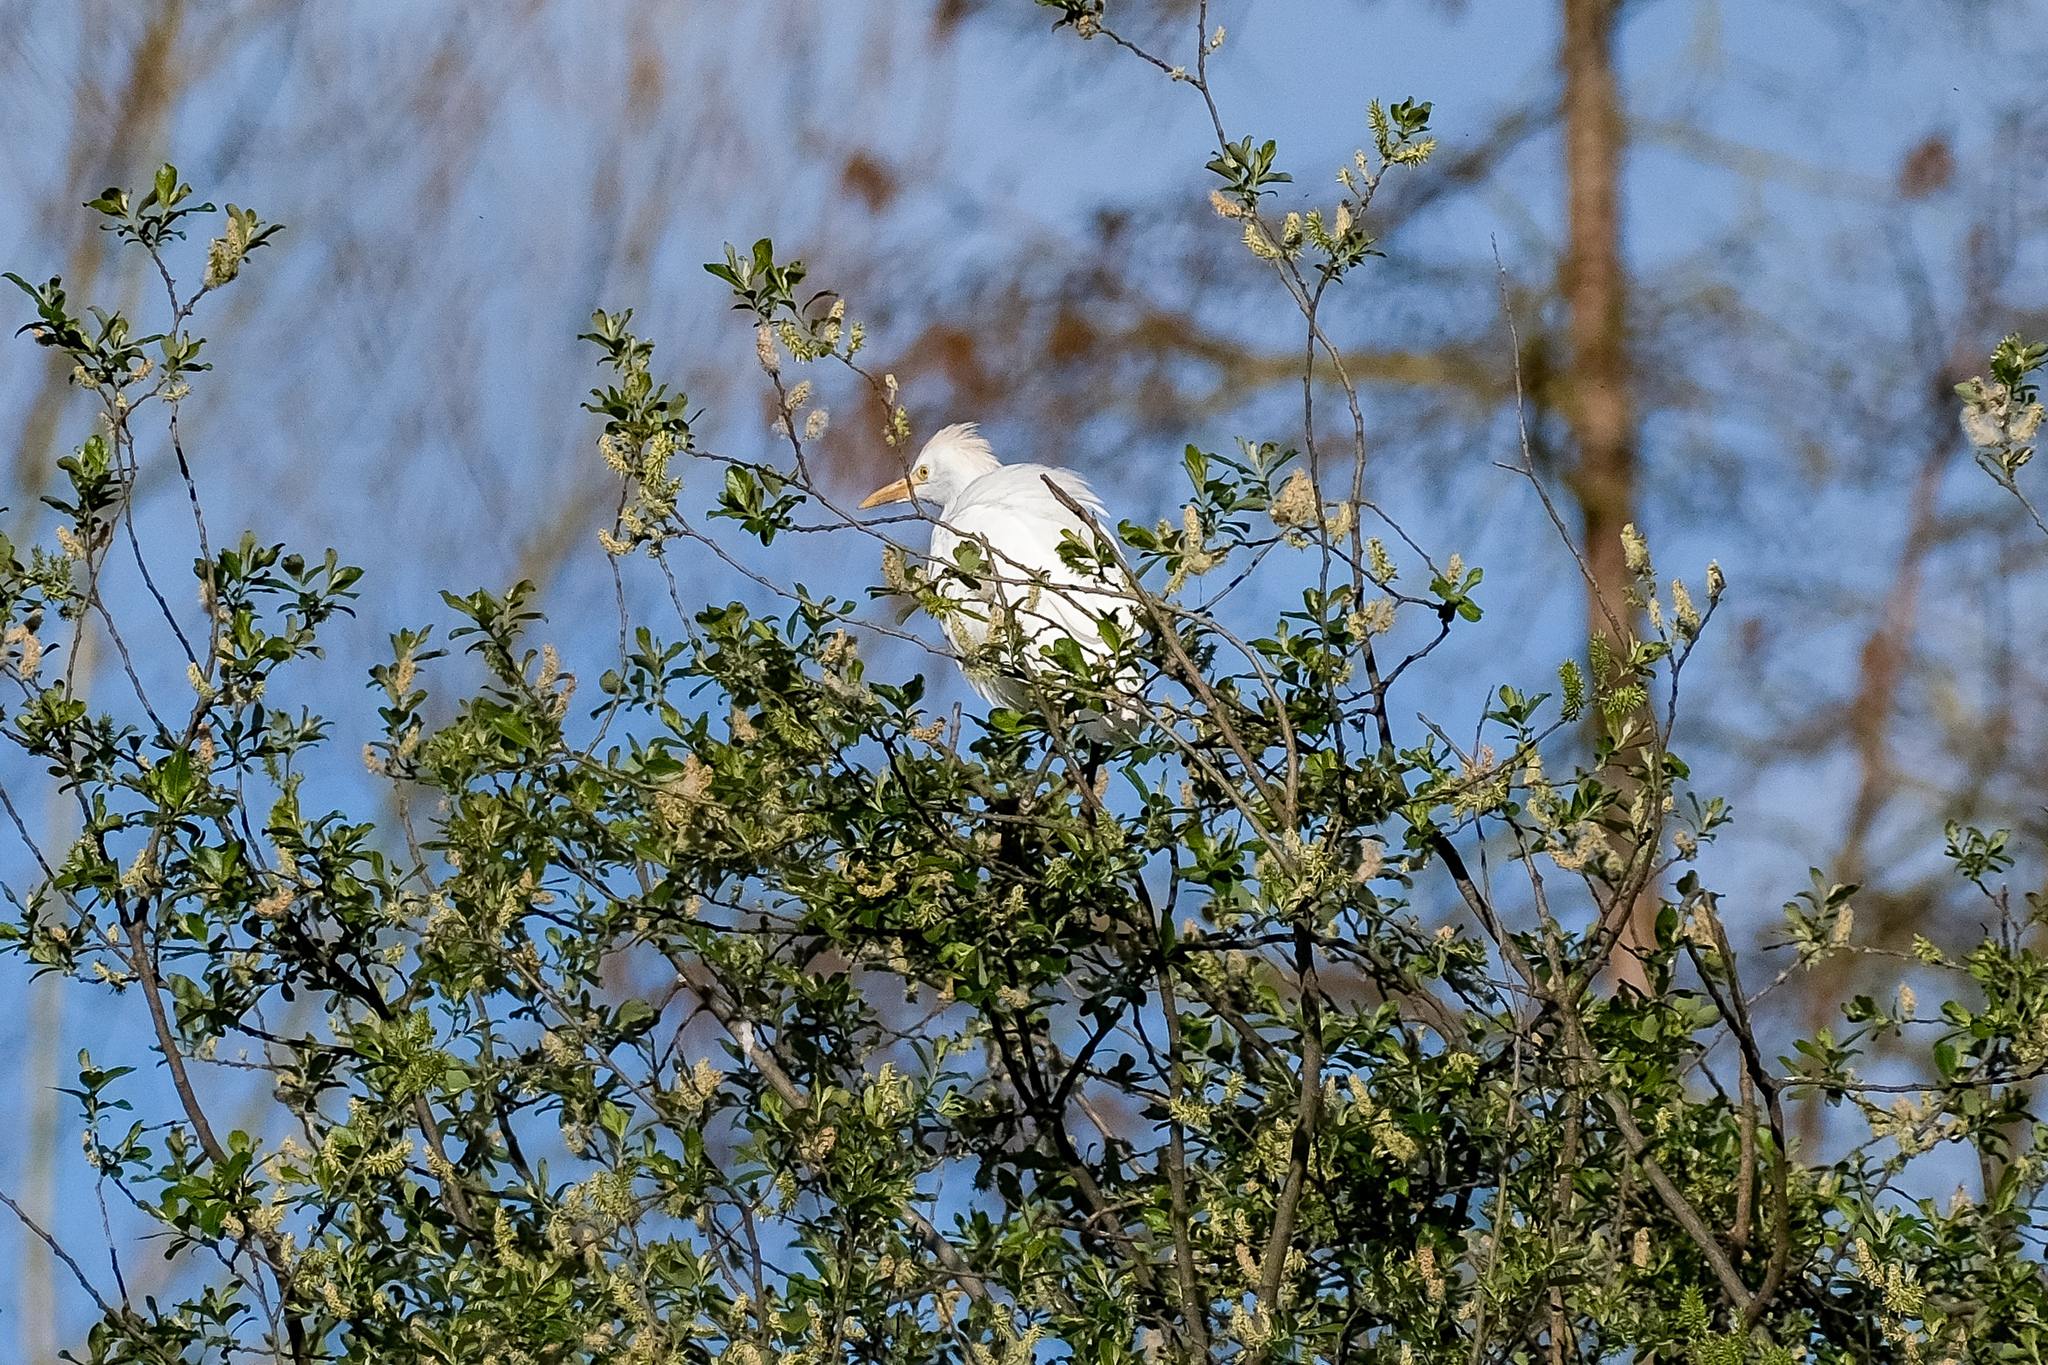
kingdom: Animalia
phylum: Chordata
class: Aves
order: Pelecaniformes
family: Ardeidae
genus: Bubulcus
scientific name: Bubulcus ibis
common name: Cattle egret
